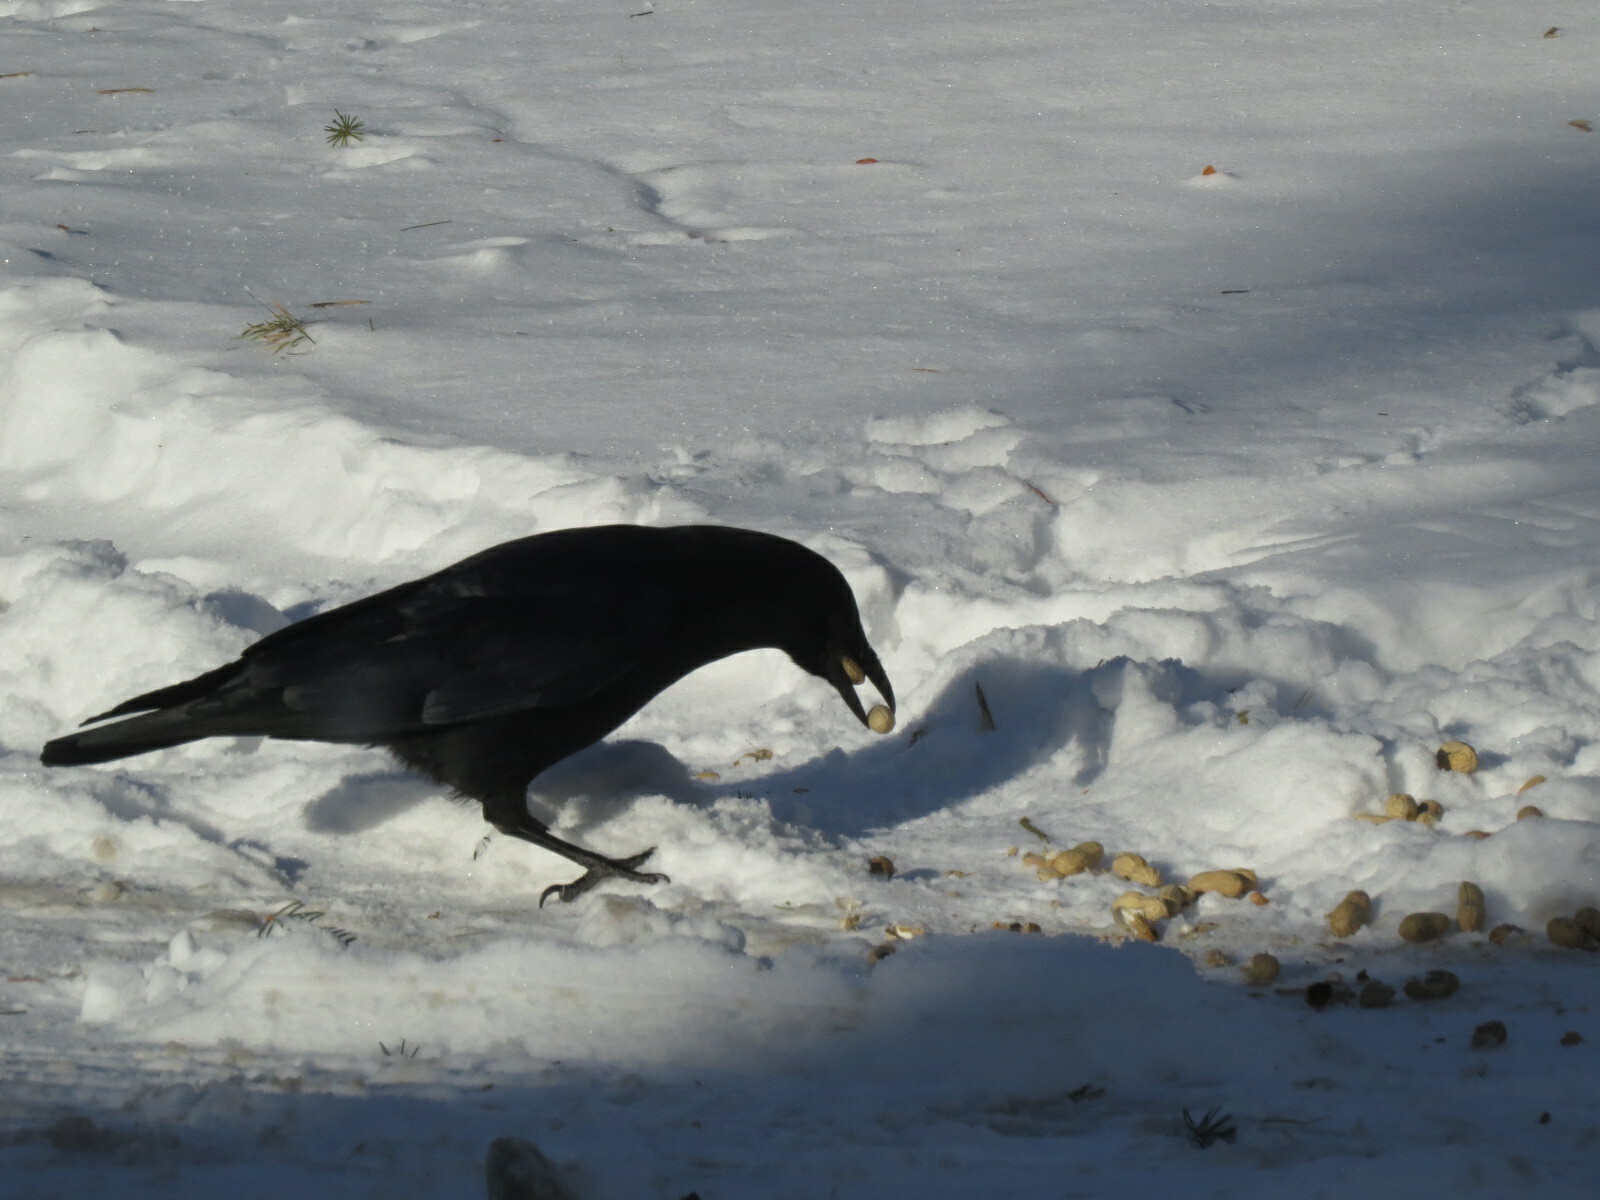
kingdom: Animalia
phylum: Chordata
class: Aves
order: Passeriformes
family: Corvidae
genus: Corvus
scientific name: Corvus brachyrhynchos
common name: American crow
